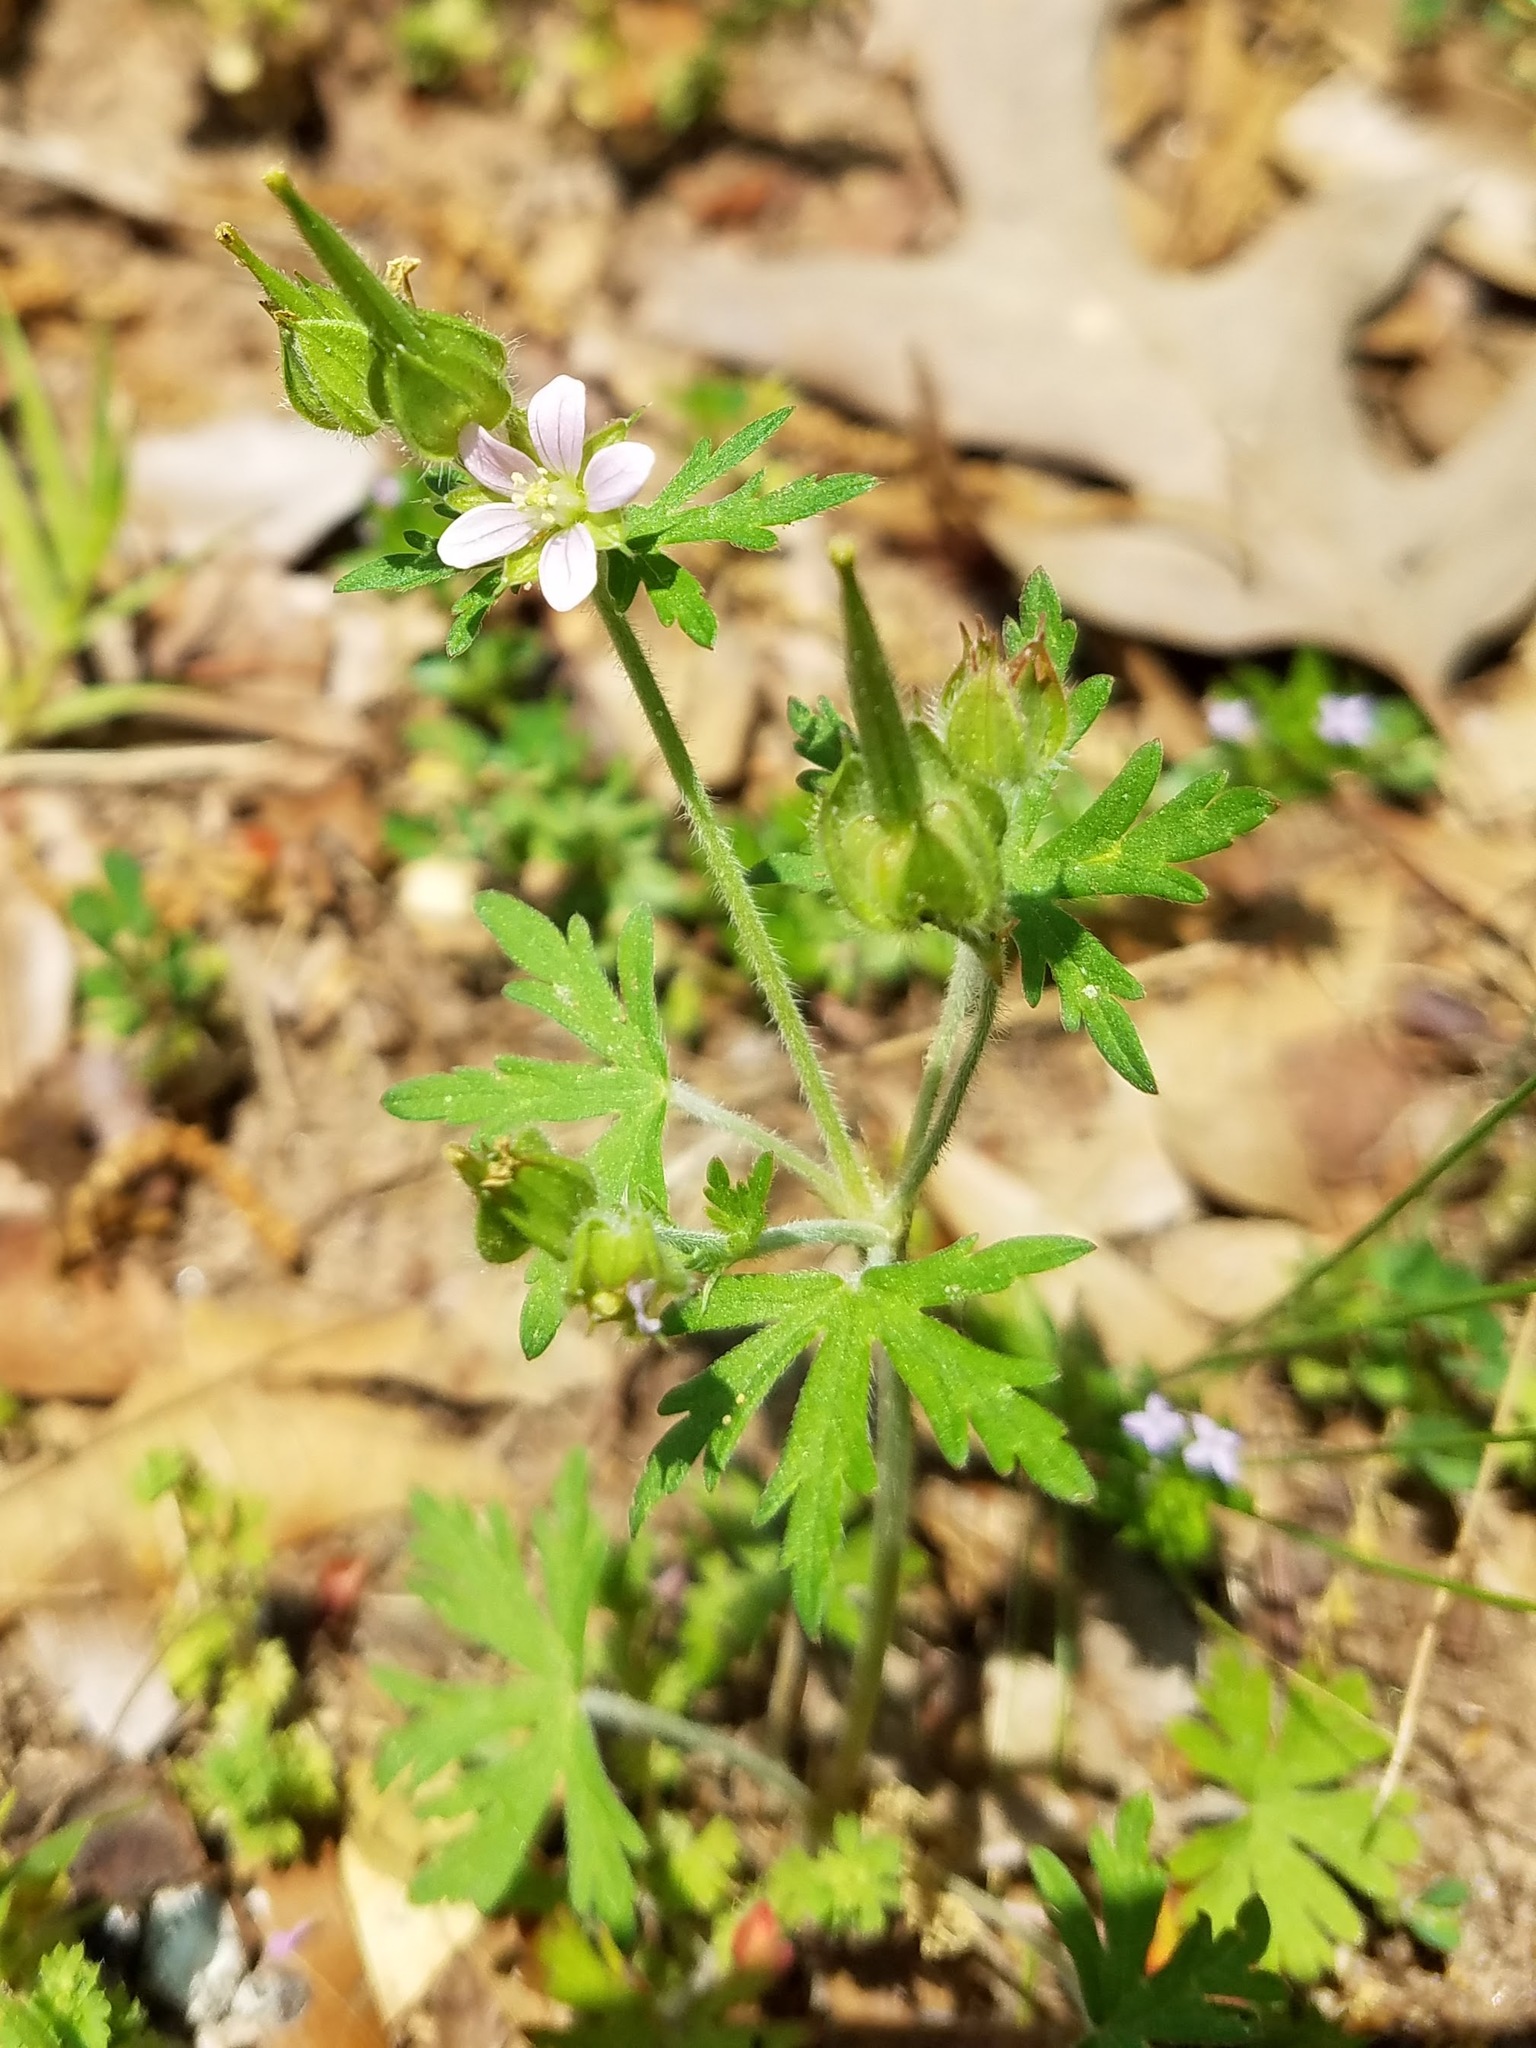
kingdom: Plantae
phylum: Tracheophyta
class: Magnoliopsida
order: Geraniales
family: Geraniaceae
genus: Geranium
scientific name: Geranium carolinianum
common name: Carolina crane's-bill
